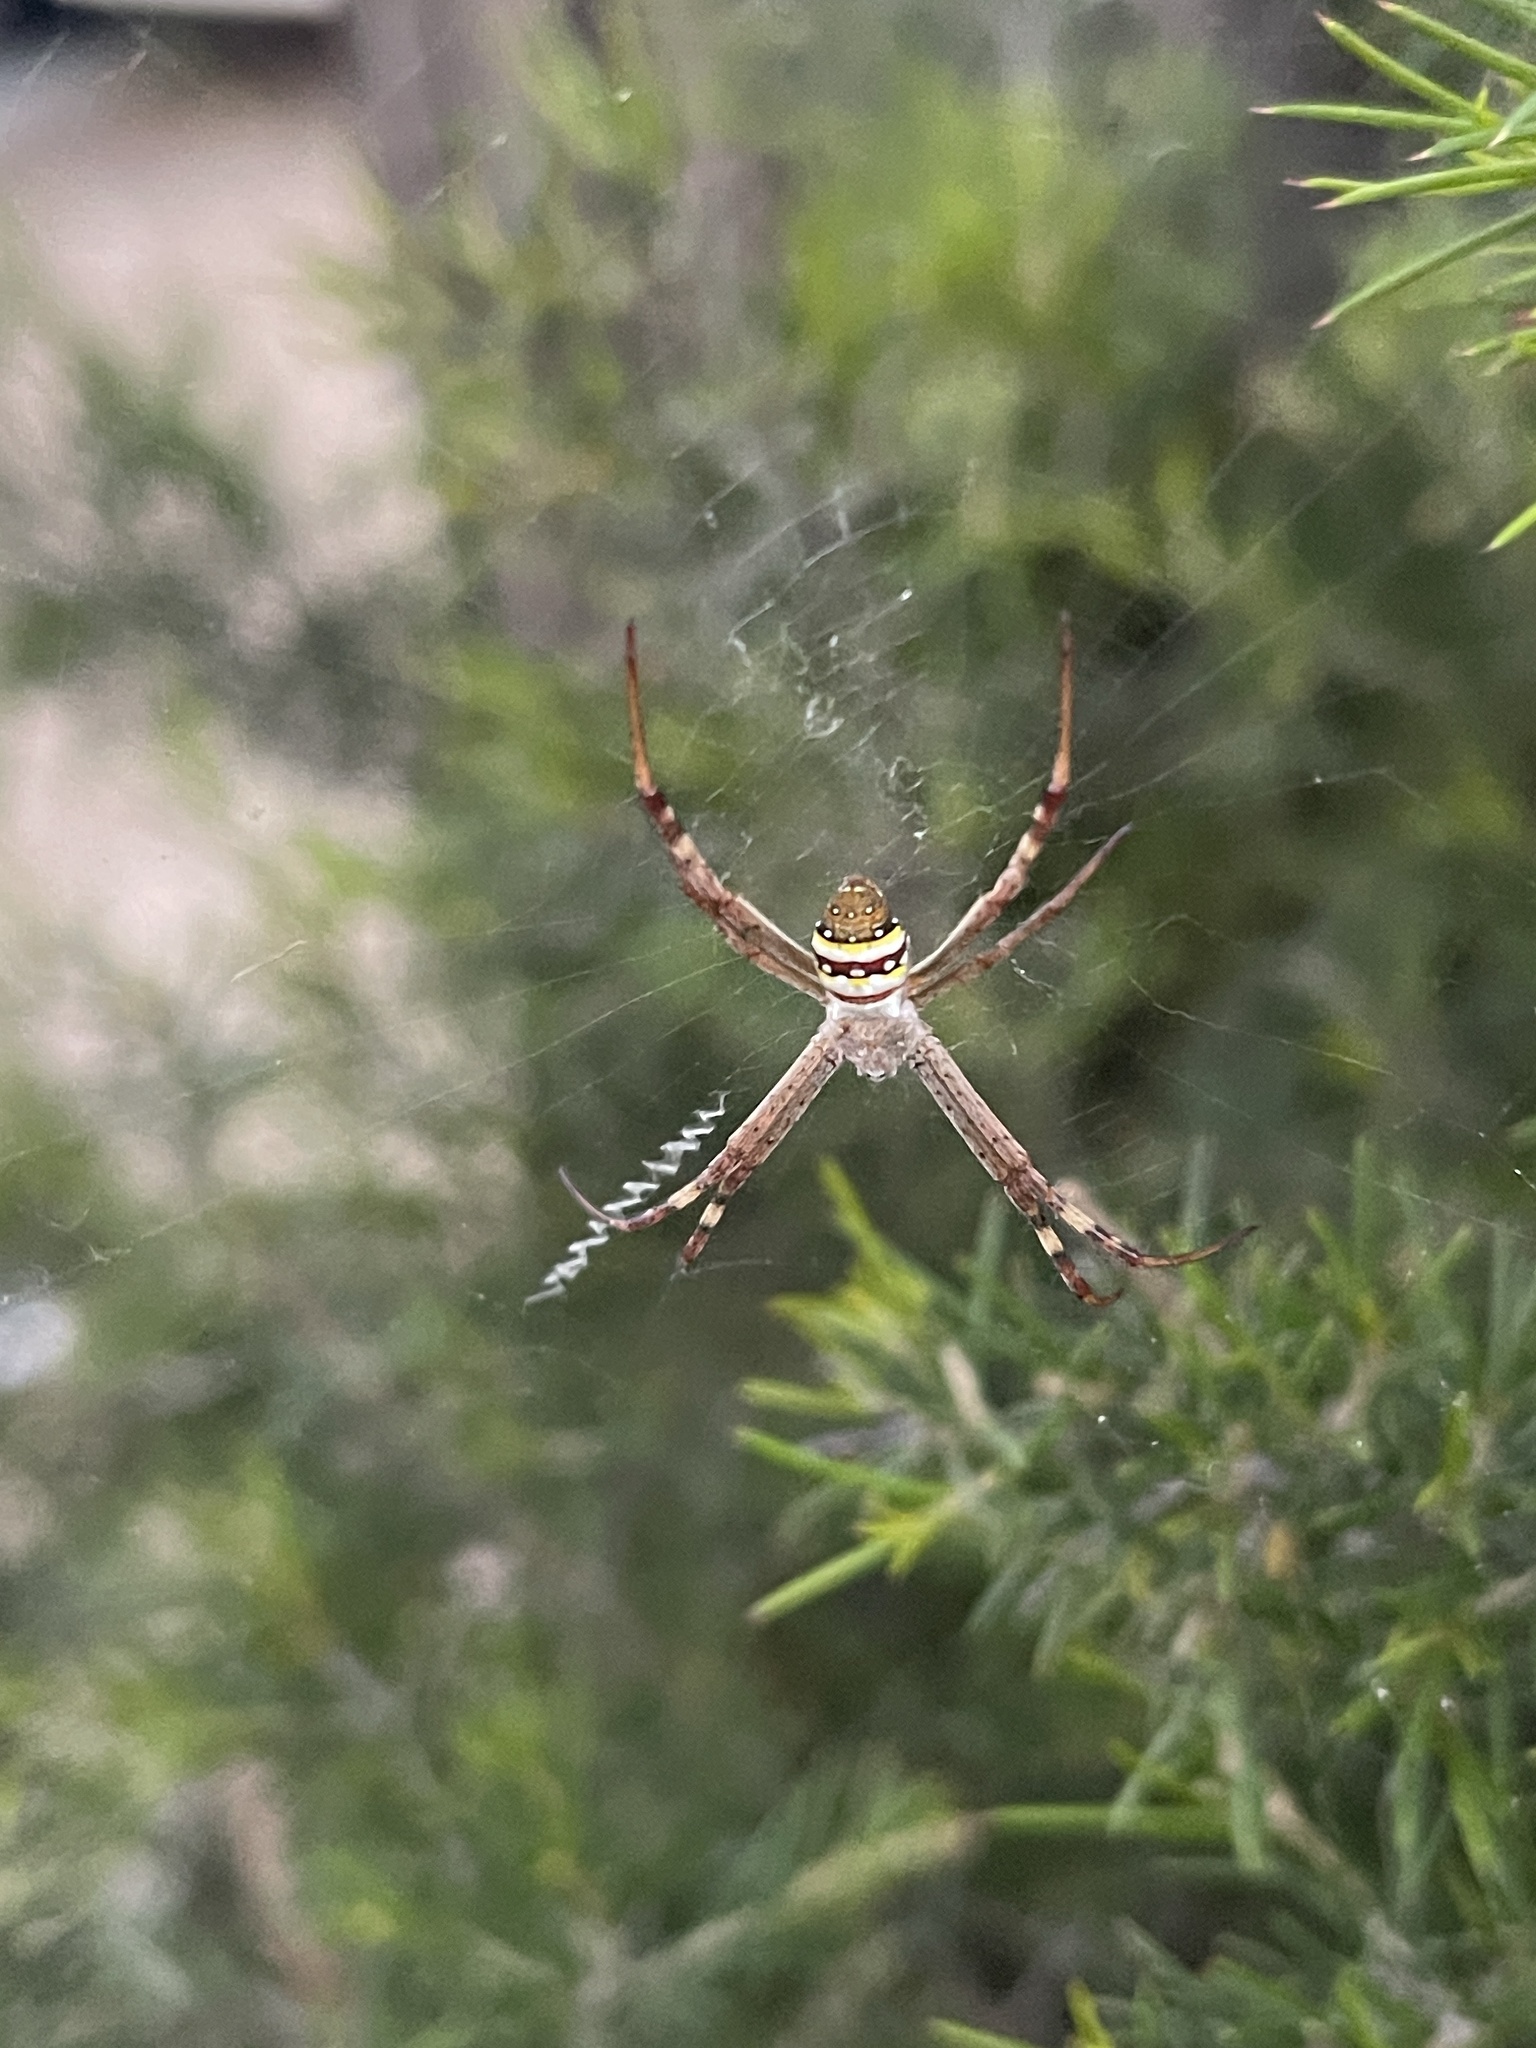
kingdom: Animalia
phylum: Arthropoda
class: Arachnida
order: Araneae
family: Araneidae
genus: Argiope
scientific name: Argiope keyserlingi
